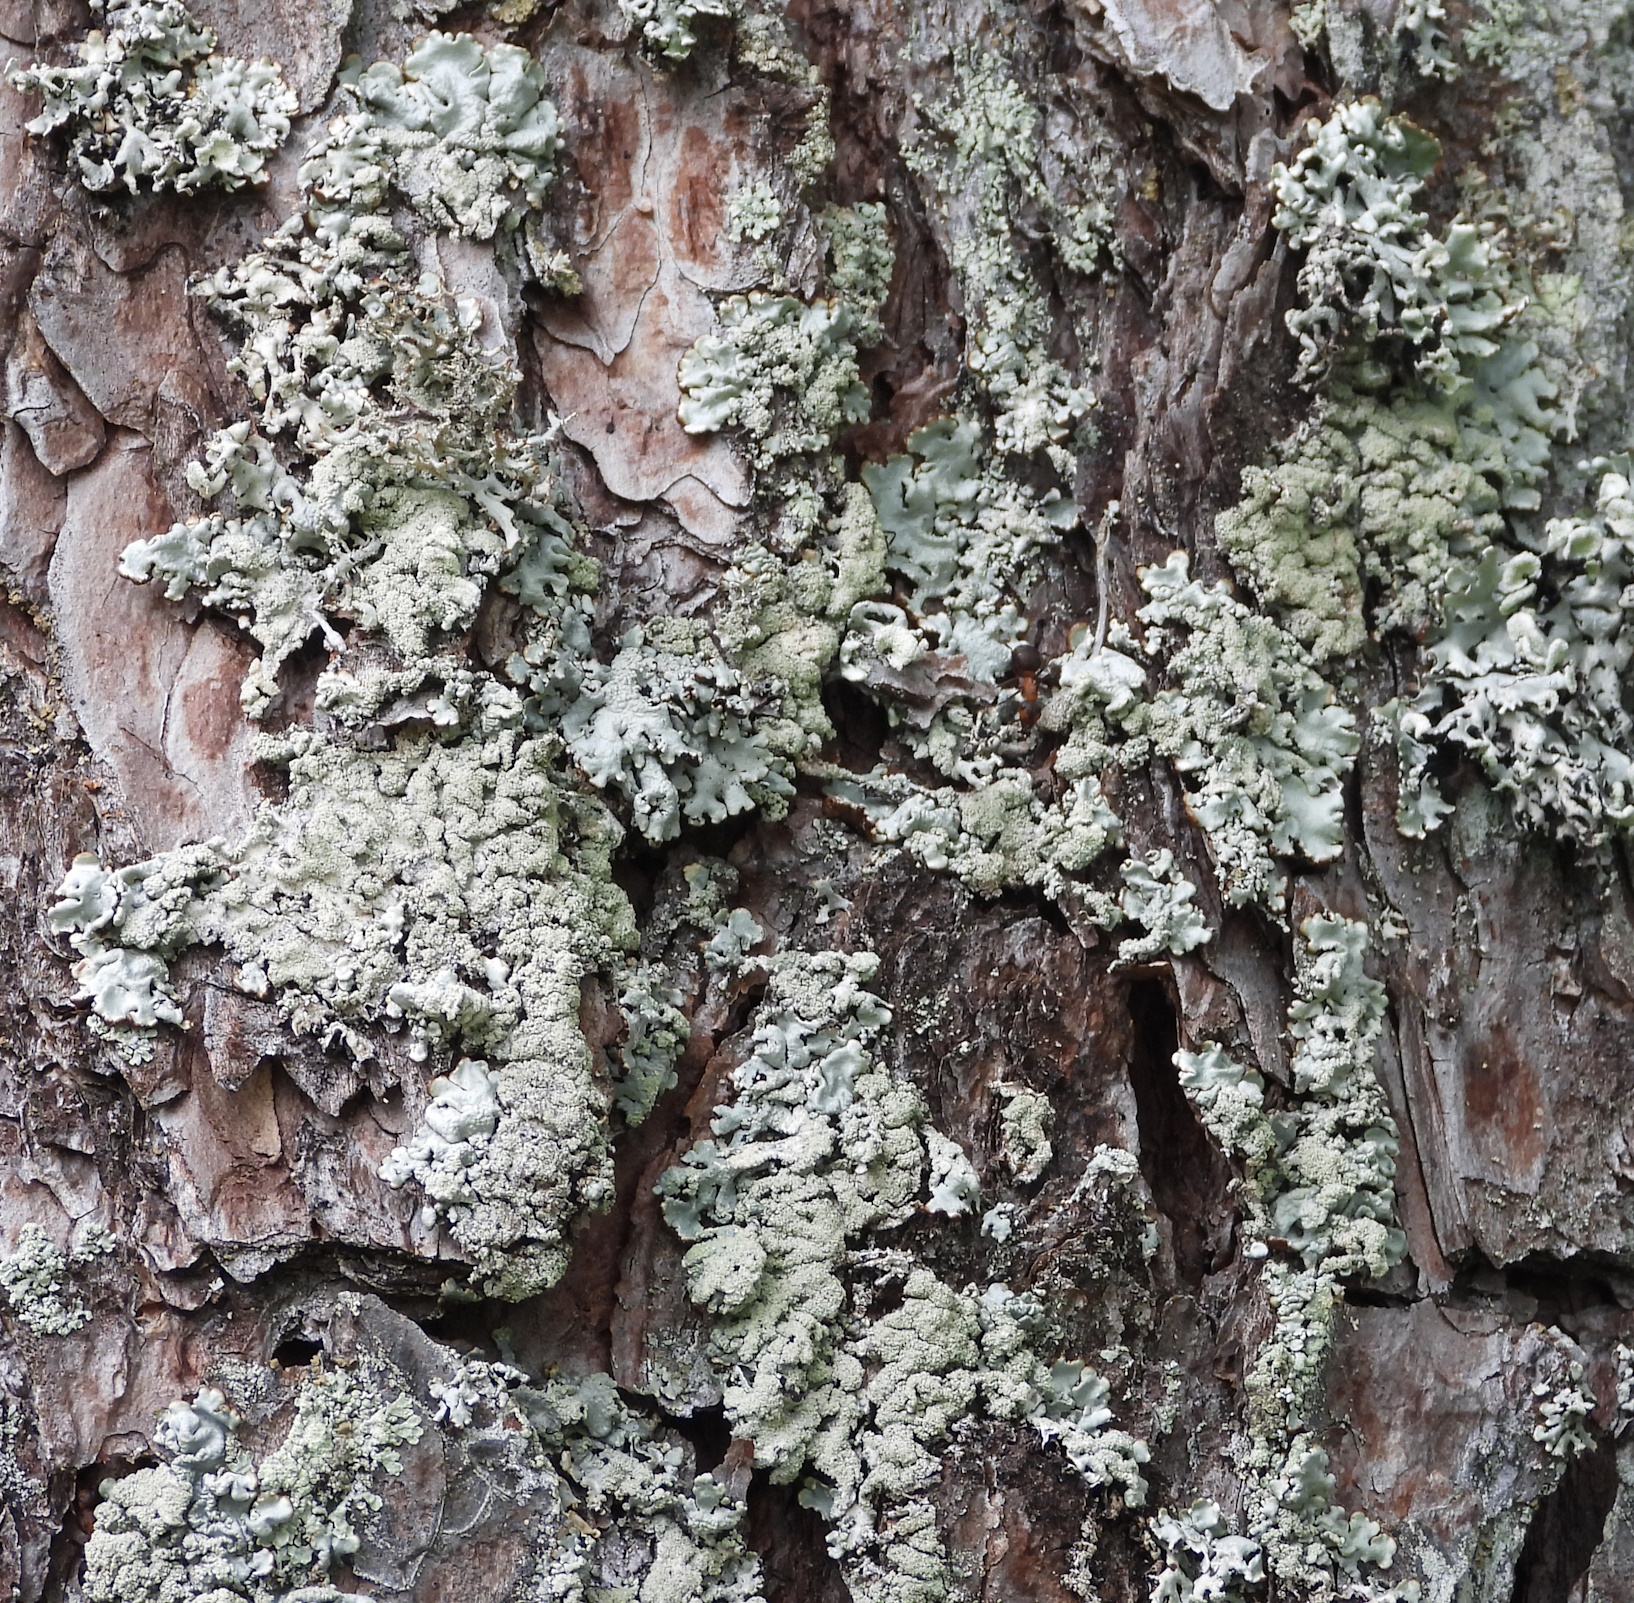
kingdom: Fungi
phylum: Ascomycota
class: Lecanoromycetes
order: Lecanorales
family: Parmeliaceae
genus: Hypogymnia
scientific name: Hypogymnia farinacea
